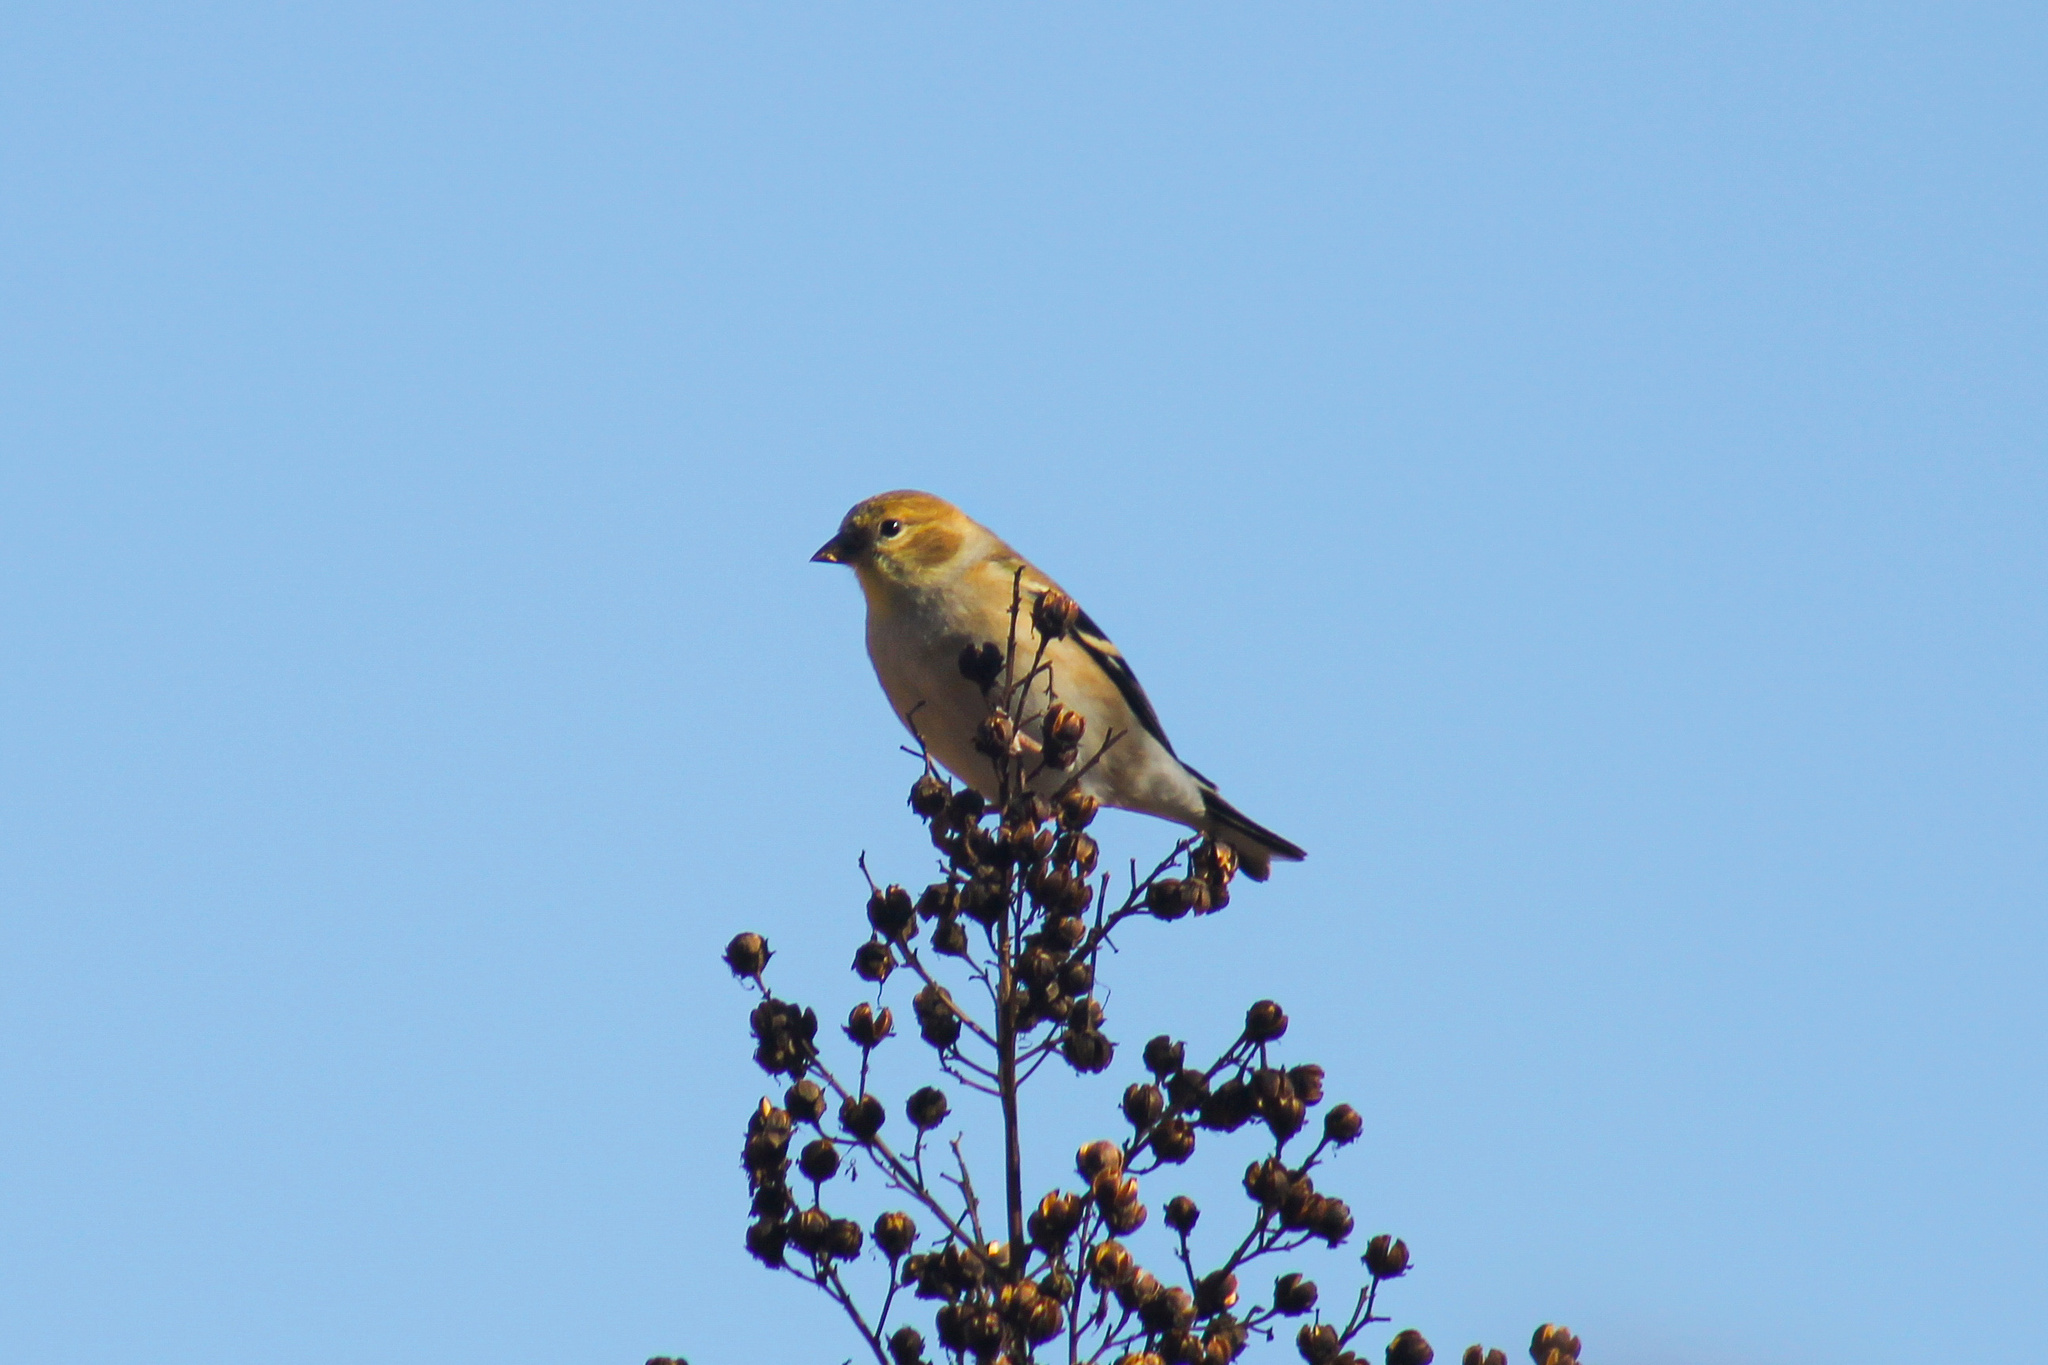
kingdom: Animalia
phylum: Chordata
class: Aves
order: Passeriformes
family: Fringillidae
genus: Spinus
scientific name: Spinus tristis
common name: American goldfinch
